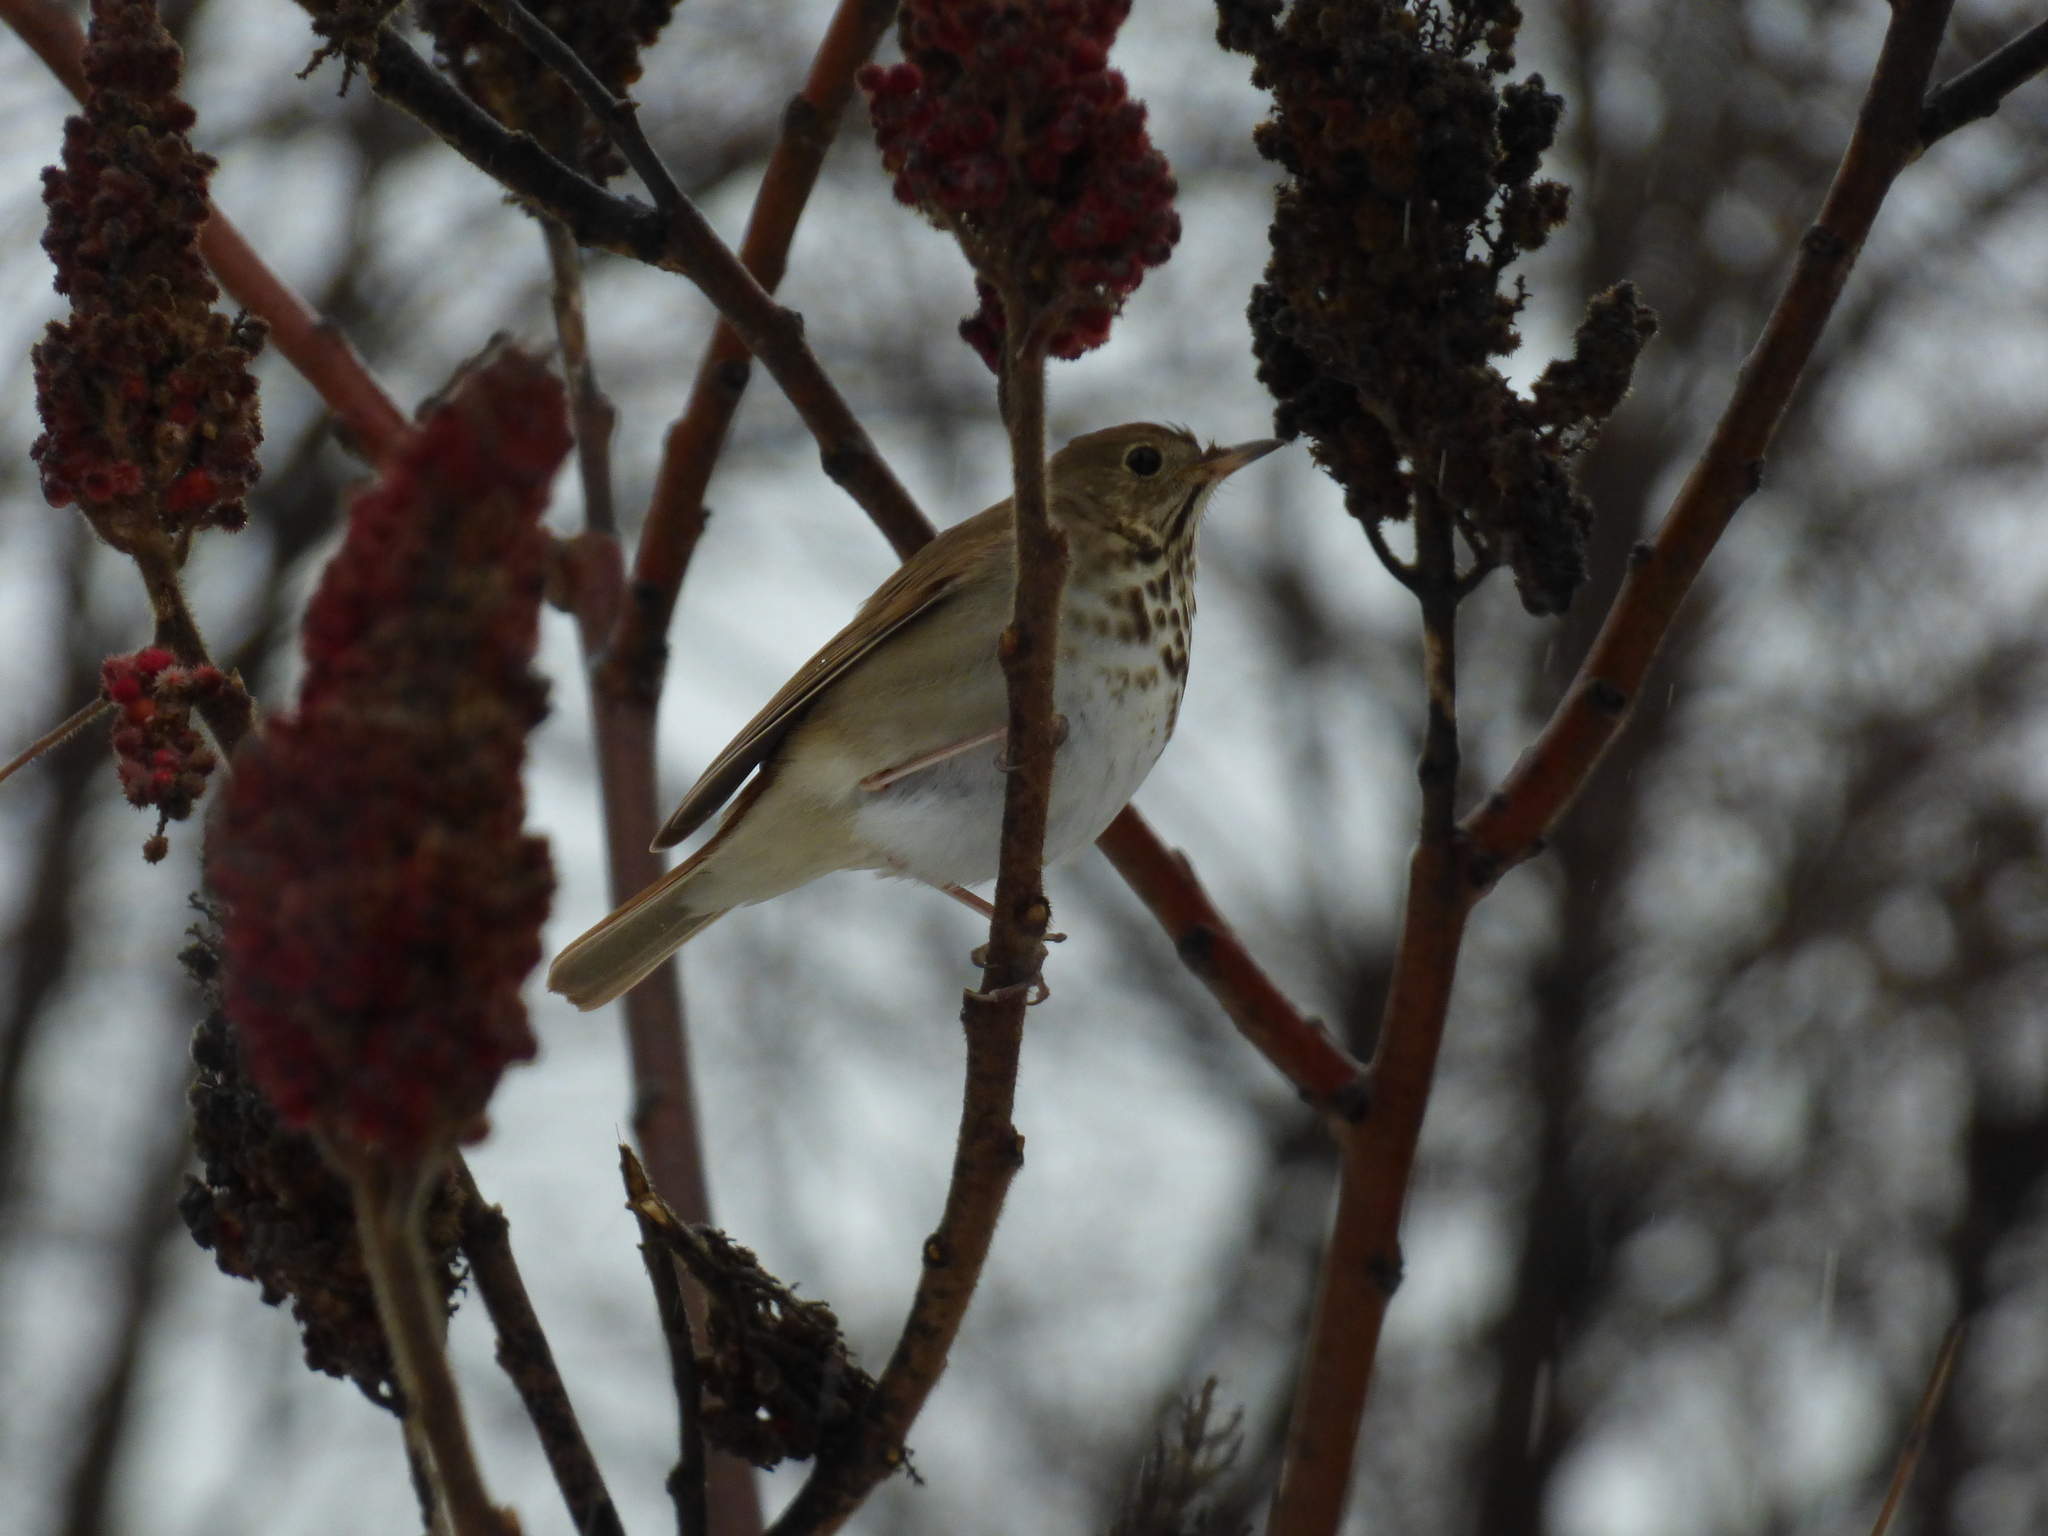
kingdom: Animalia
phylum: Chordata
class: Aves
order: Passeriformes
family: Turdidae
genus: Catharus
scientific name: Catharus guttatus
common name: Hermit thrush
